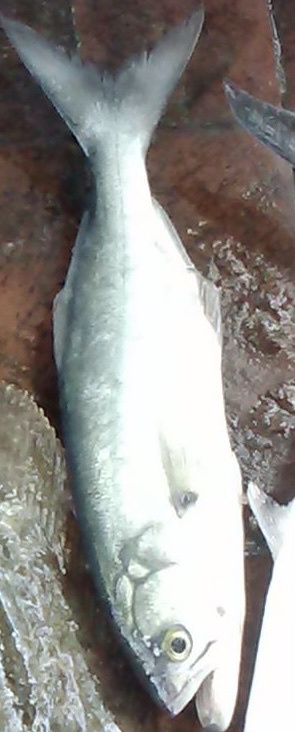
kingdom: Animalia
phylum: Chordata
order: Perciformes
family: Pomatomidae
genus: Pomatomus
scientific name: Pomatomus saltatrix
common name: Bluefish
